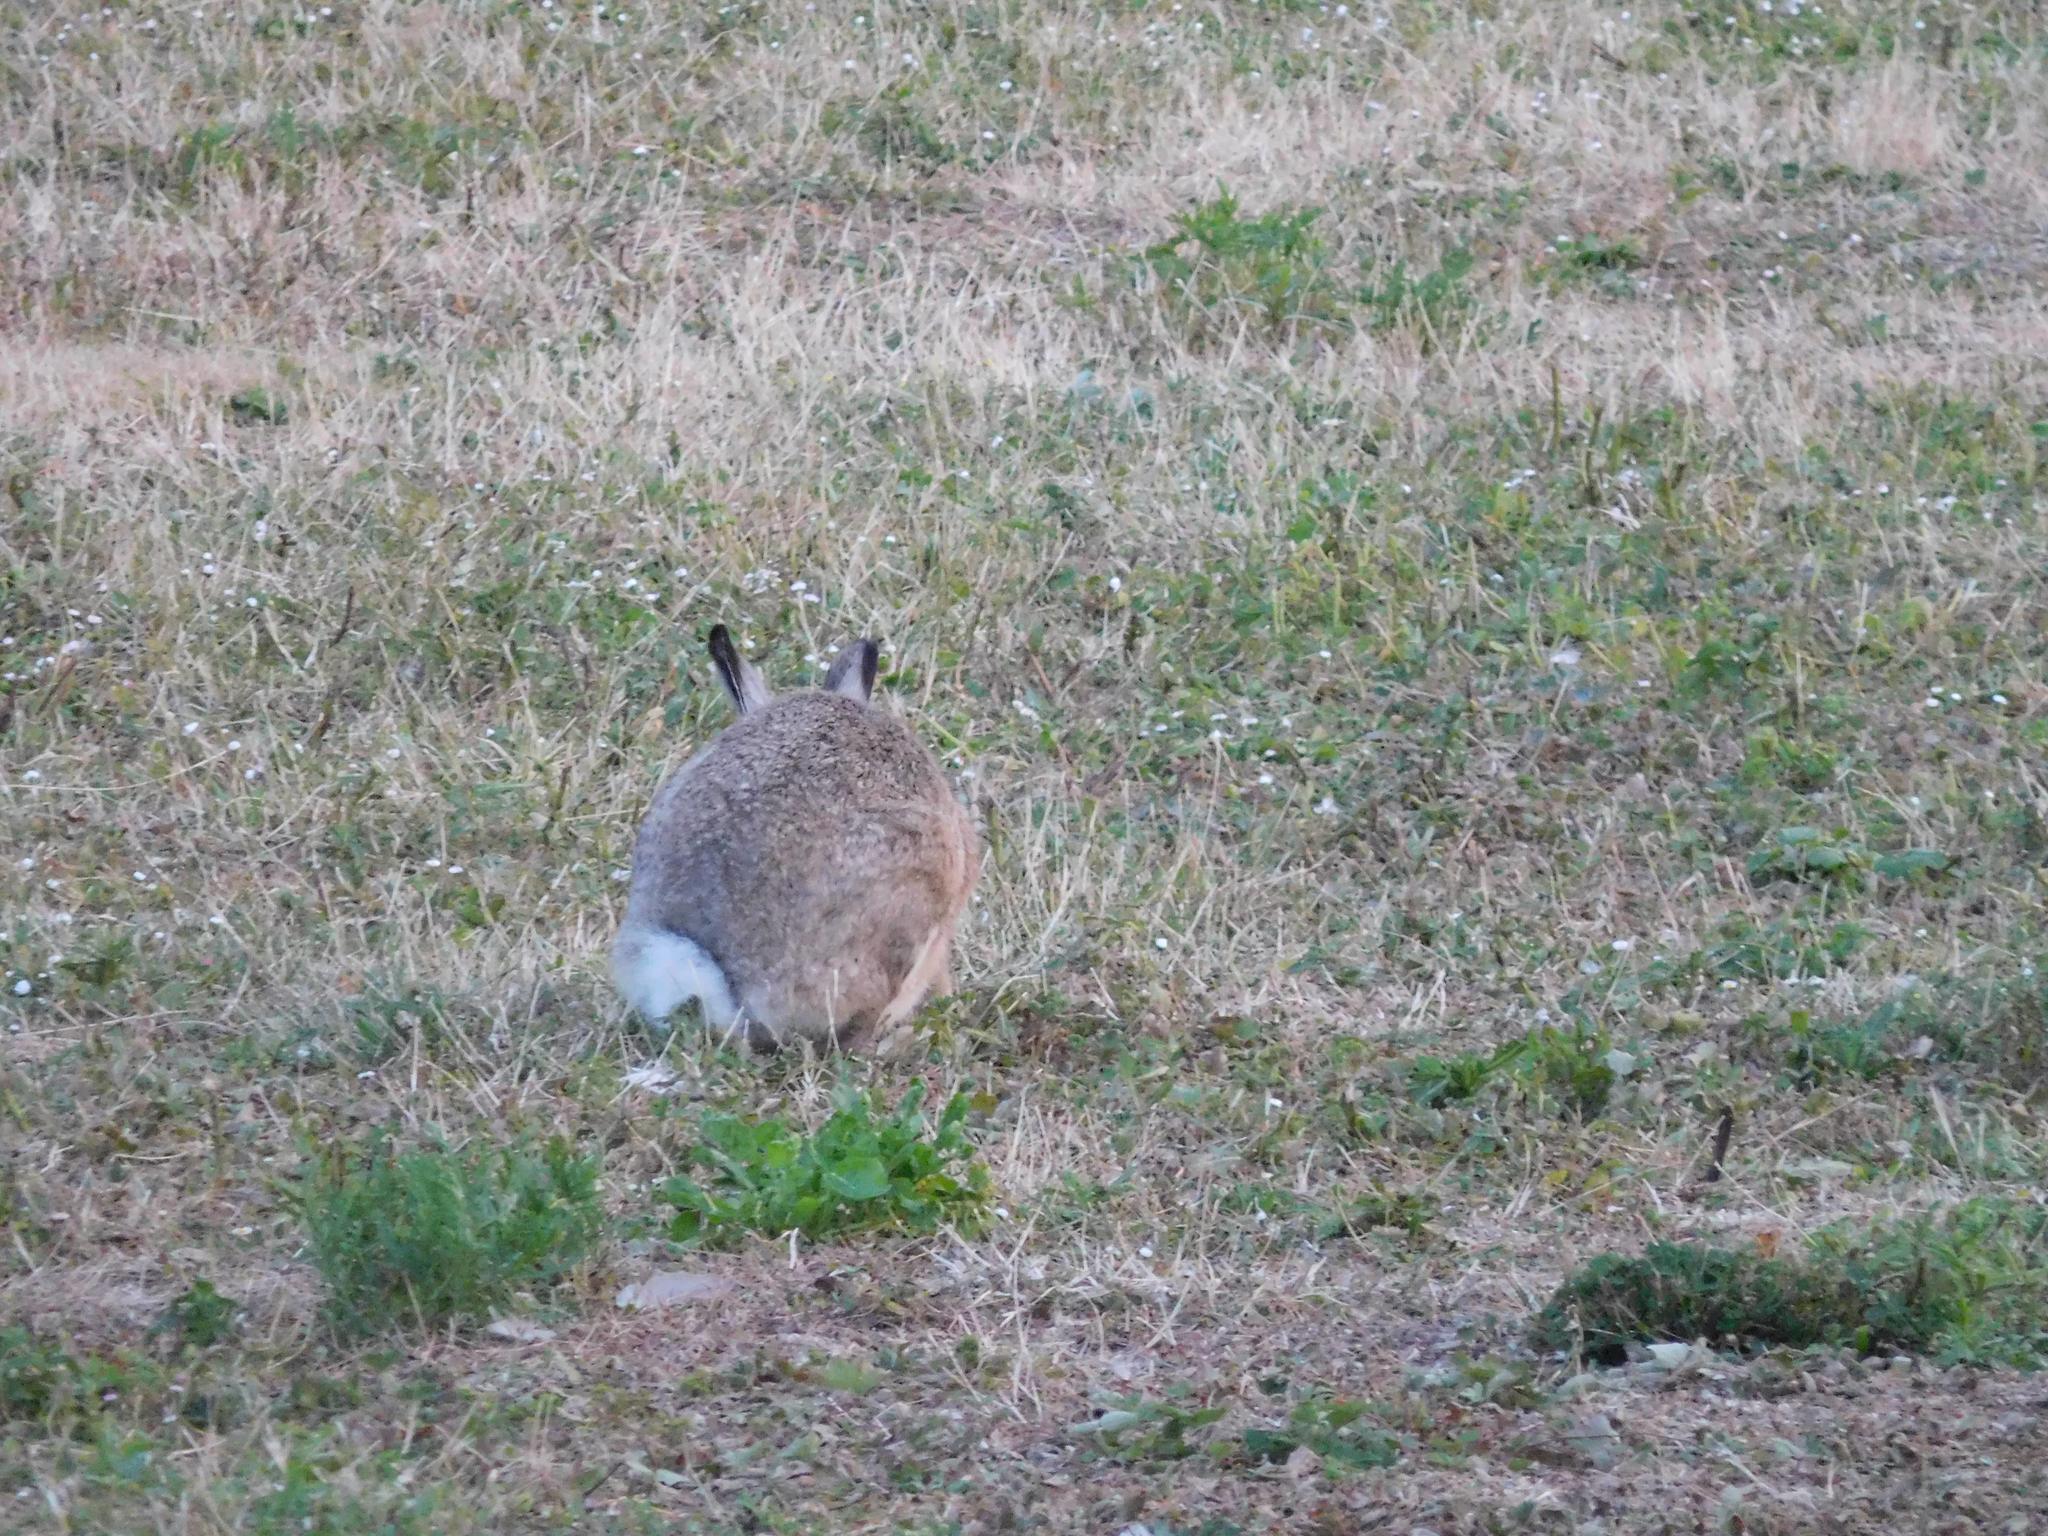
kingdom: Animalia
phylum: Chordata
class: Mammalia
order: Lagomorpha
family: Leporidae
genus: Lepus
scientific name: Lepus europaeus
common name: European hare
